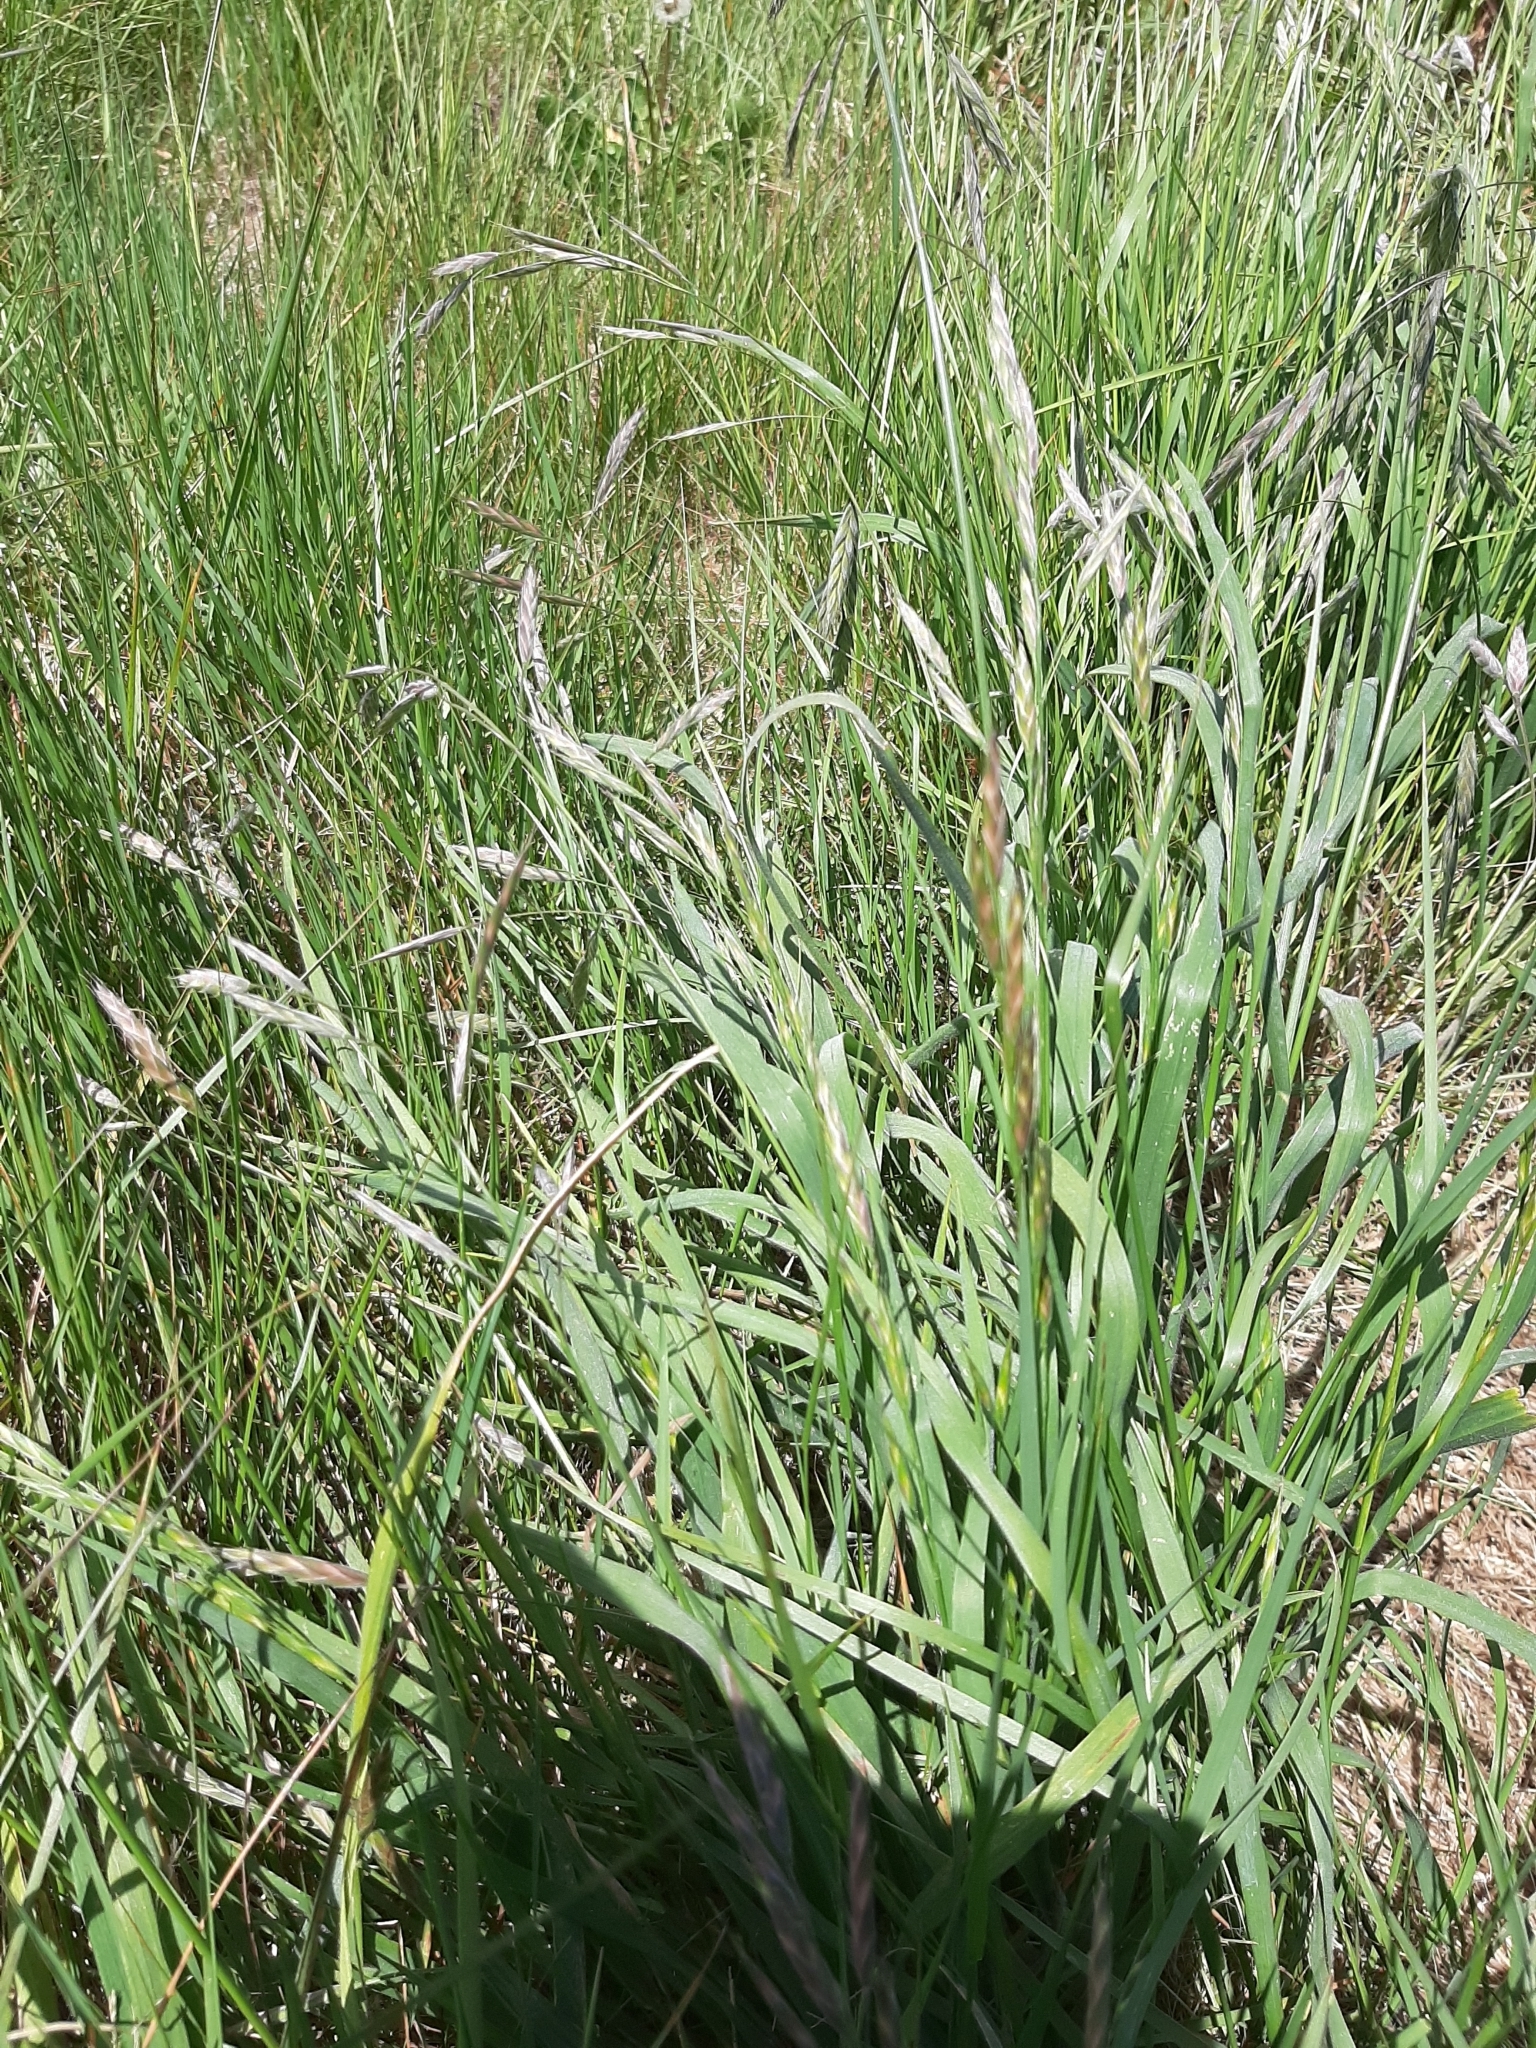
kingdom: Plantae
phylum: Tracheophyta
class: Liliopsida
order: Poales
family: Poaceae
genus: Bromus
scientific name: Bromus catharticus
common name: Rescuegrass
